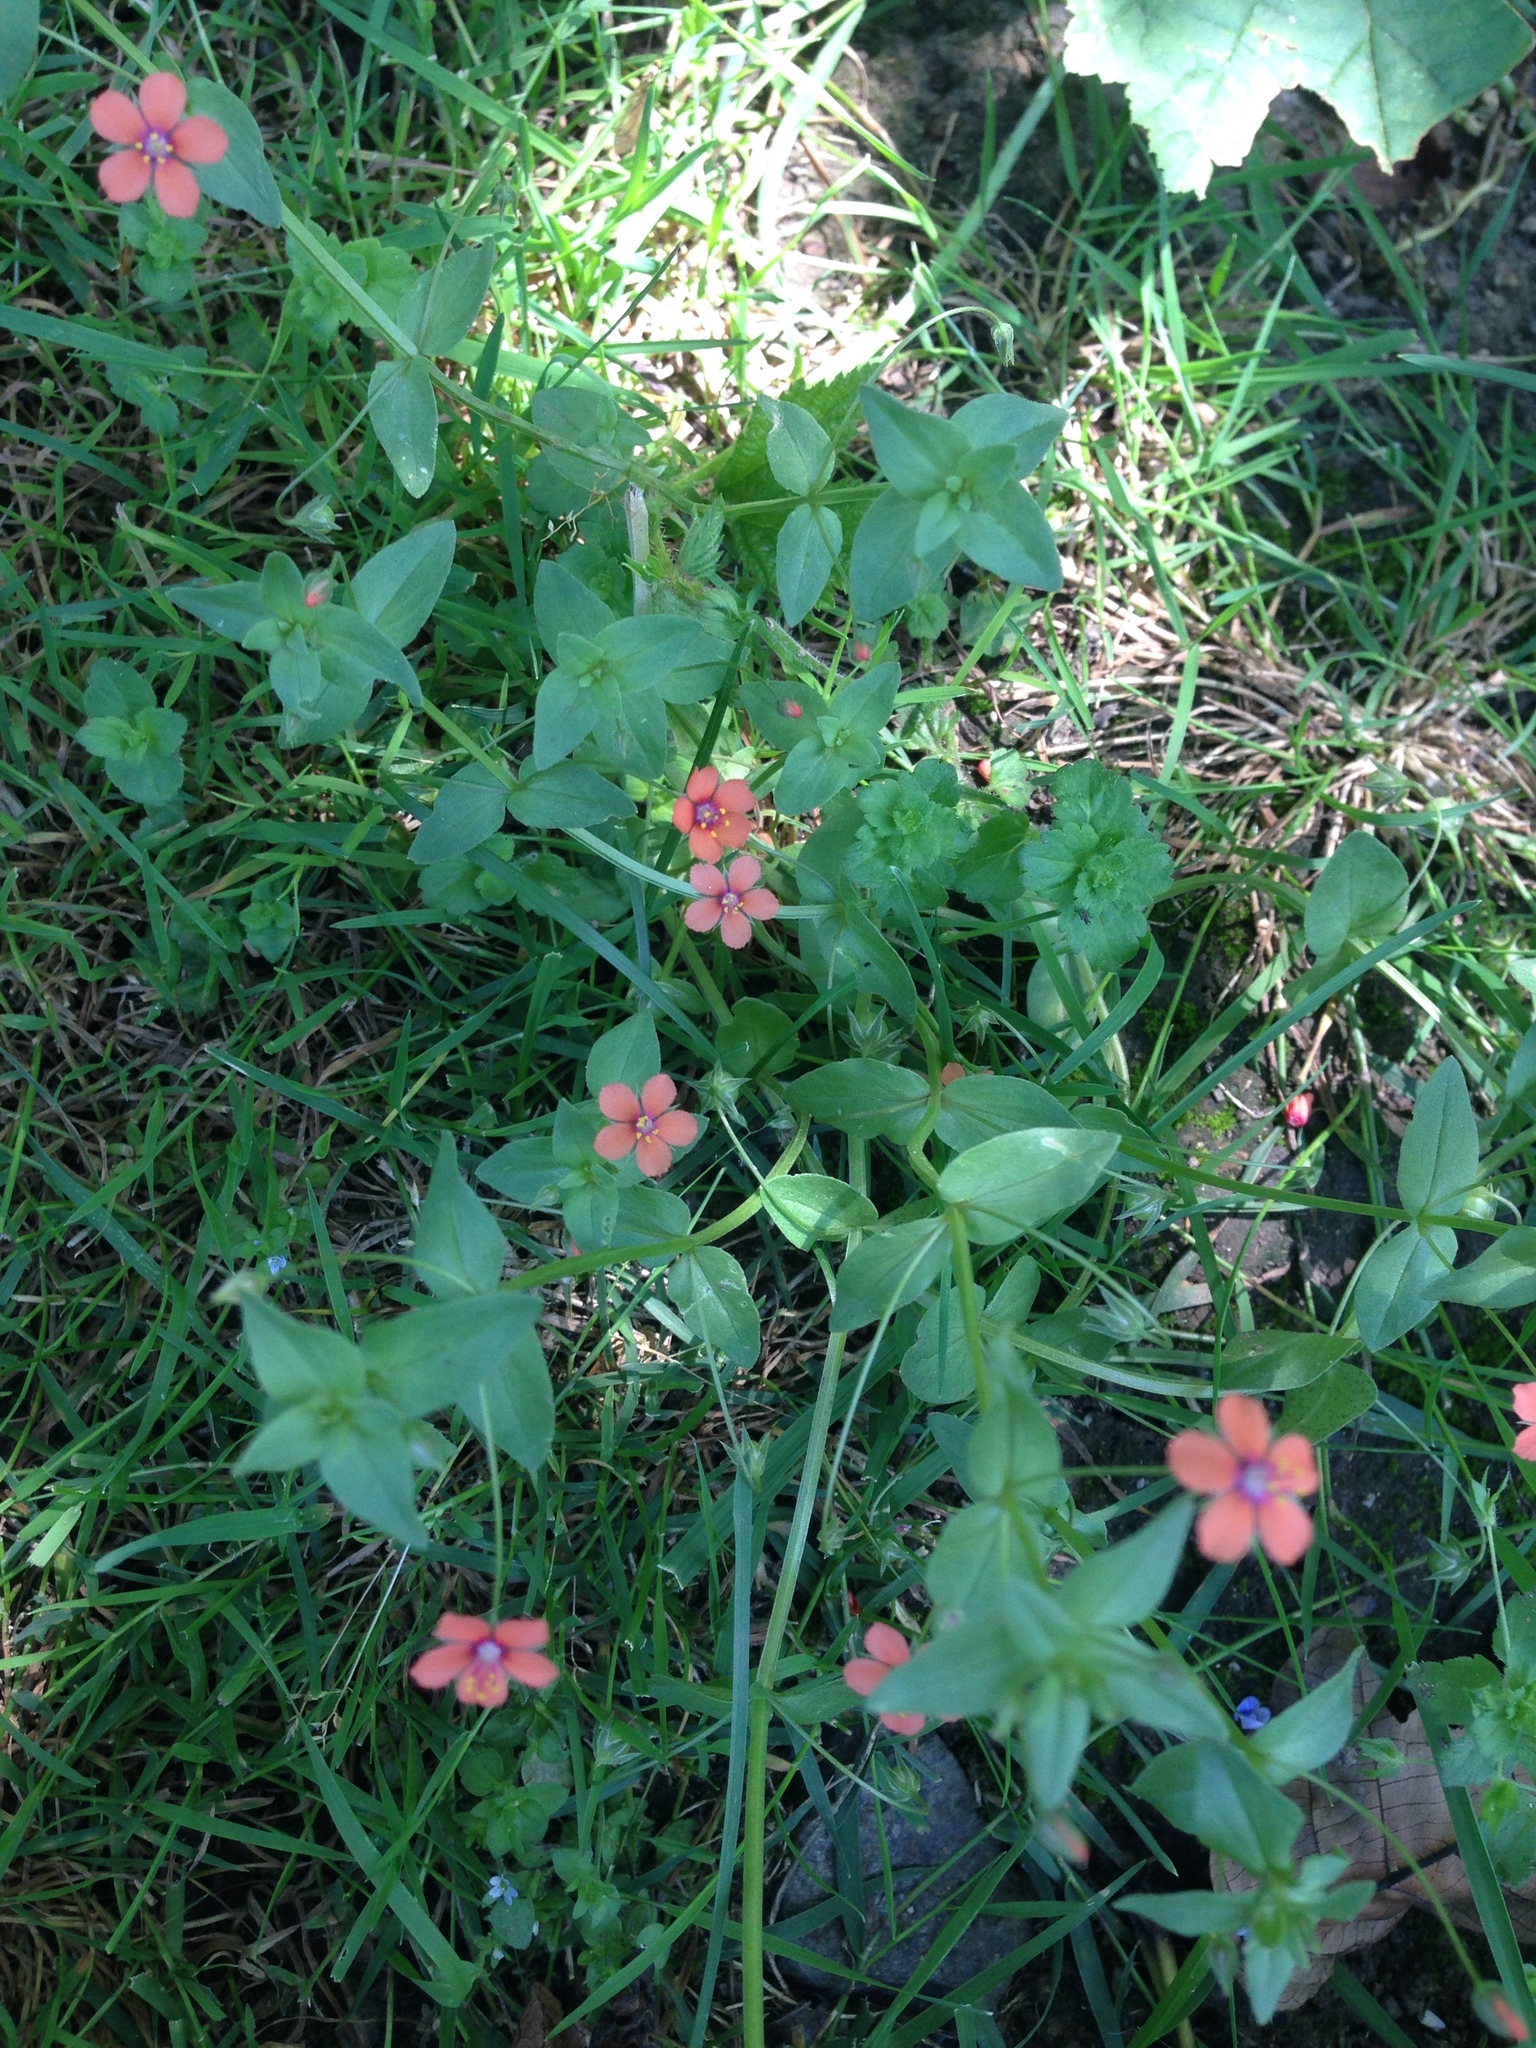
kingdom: Plantae
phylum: Tracheophyta
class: Magnoliopsida
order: Ericales
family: Primulaceae
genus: Lysimachia
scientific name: Lysimachia arvensis
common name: Scarlet pimpernel
